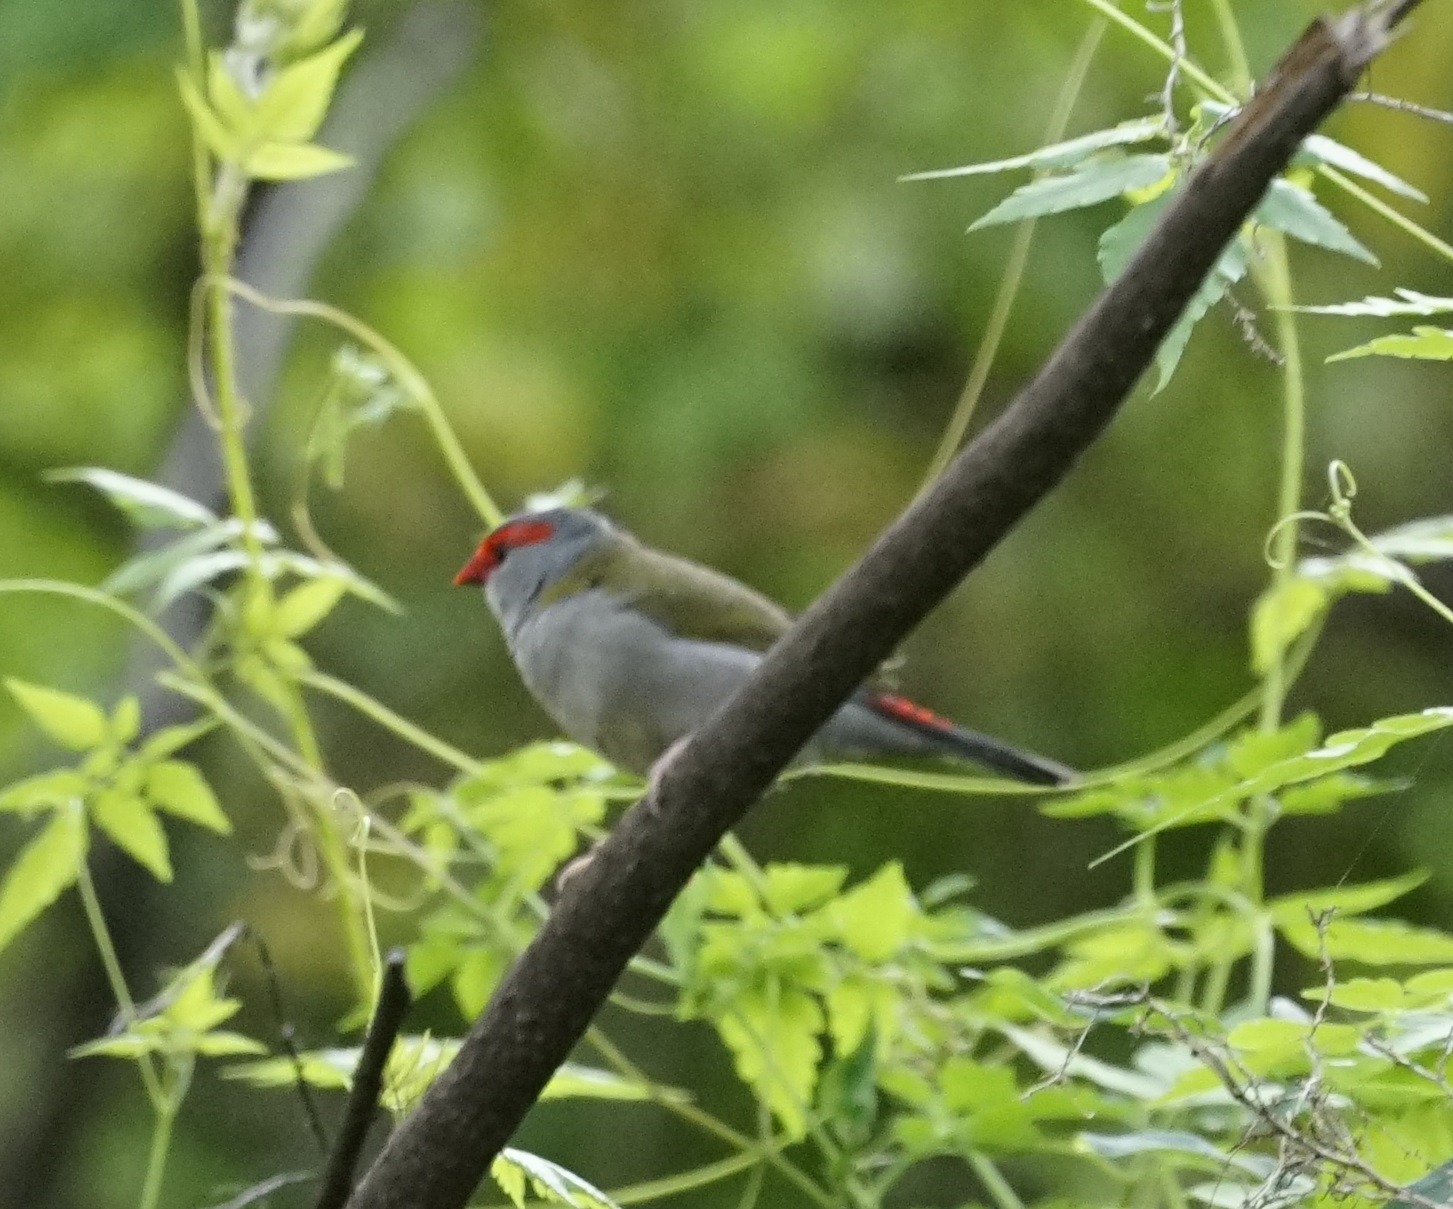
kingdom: Animalia
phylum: Chordata
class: Aves
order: Passeriformes
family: Estrildidae
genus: Neochmia
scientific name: Neochmia temporalis
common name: Red-browed finch
